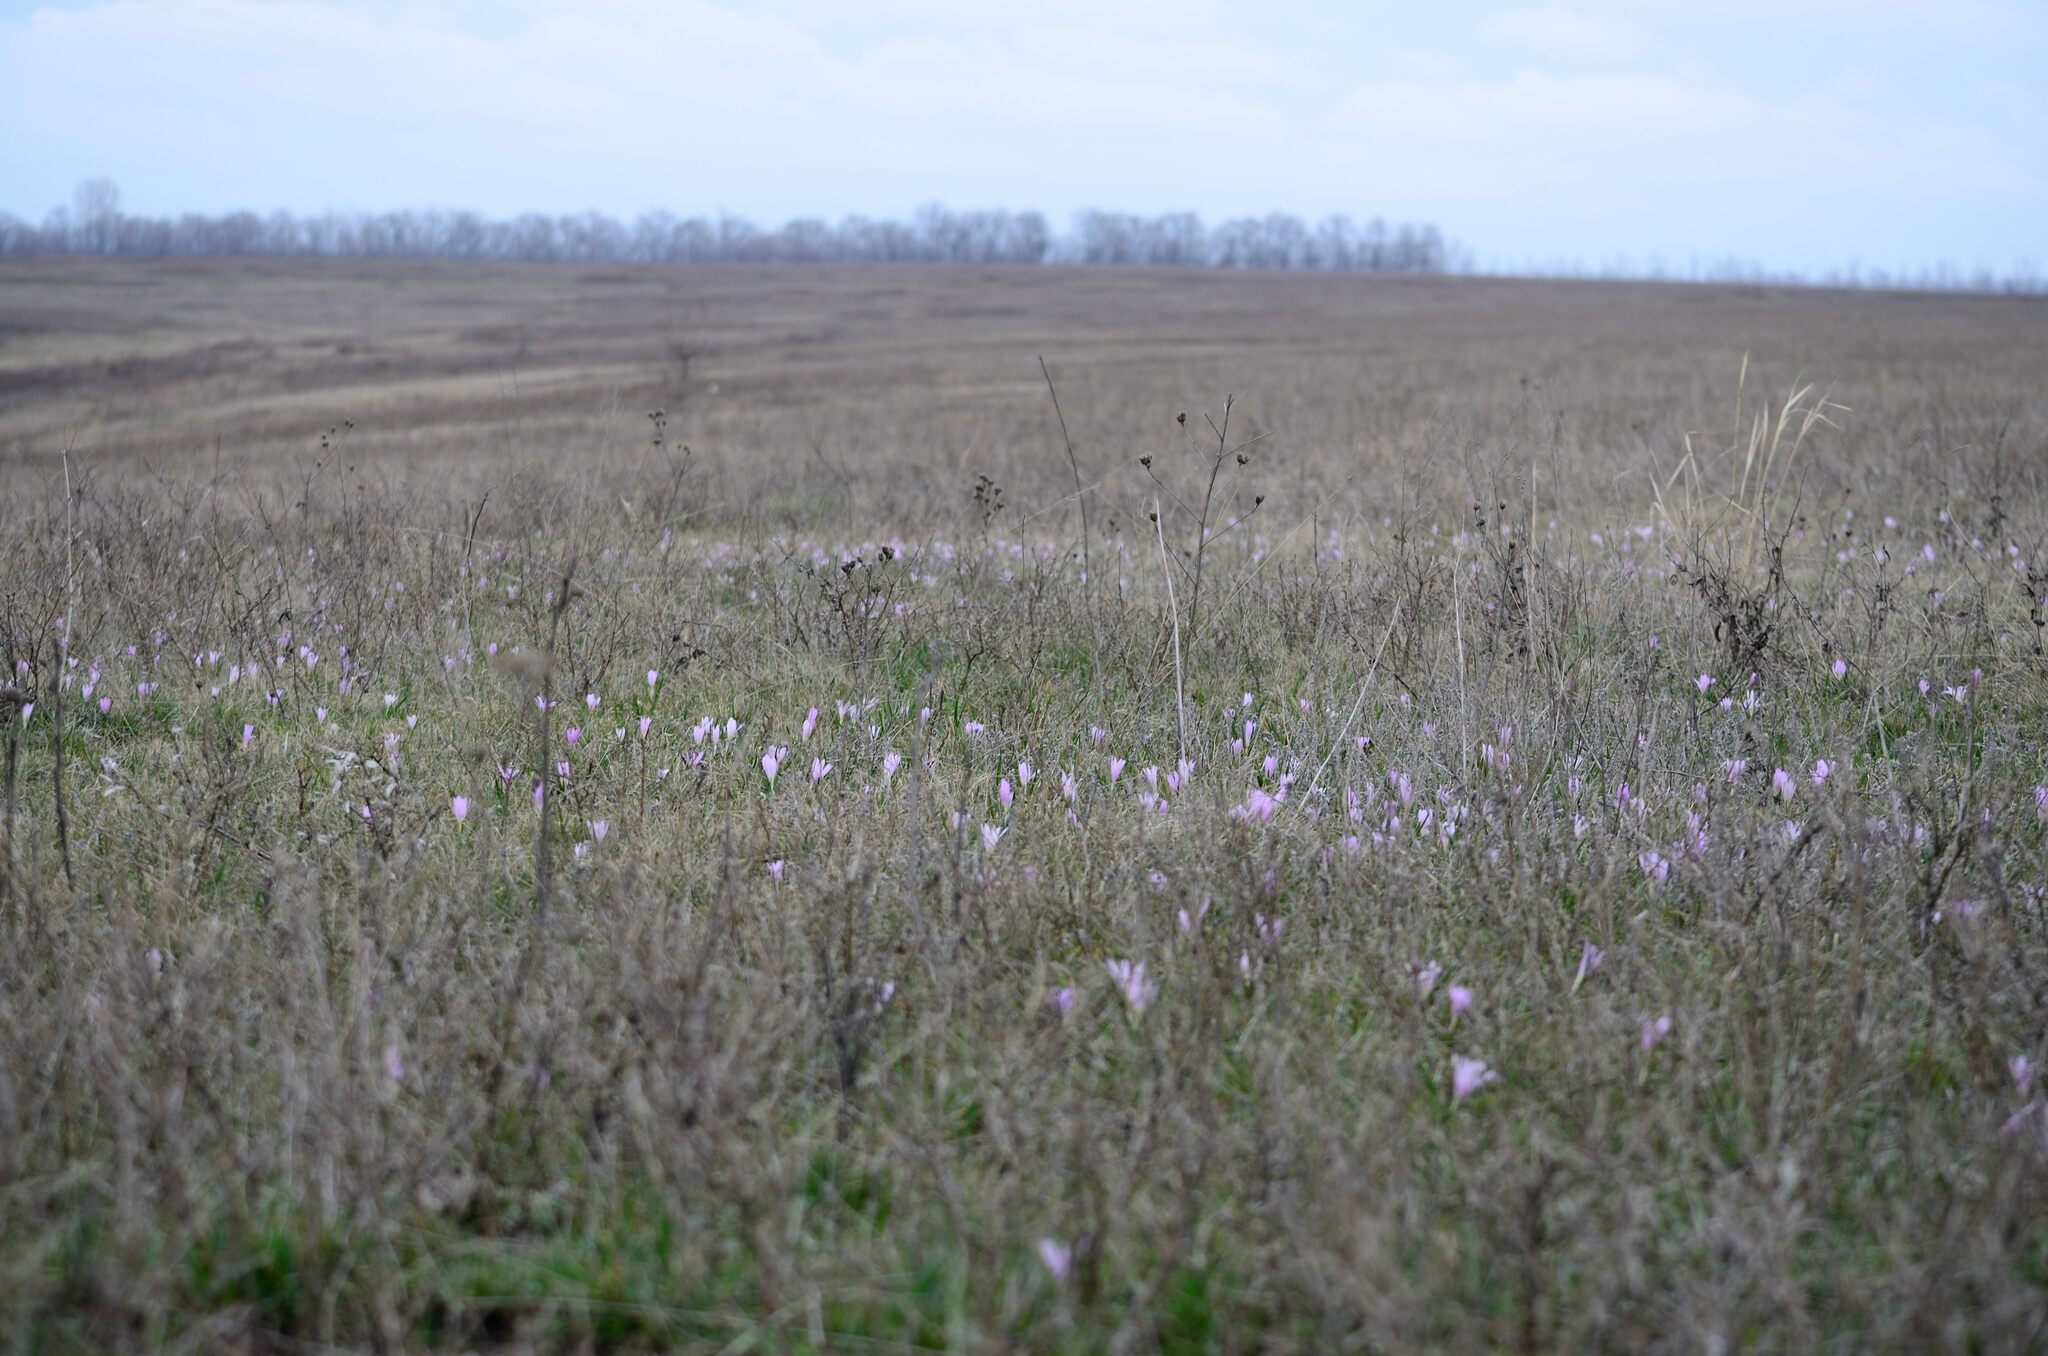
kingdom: Plantae
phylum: Tracheophyta
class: Liliopsida
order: Liliales
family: Colchicaceae
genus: Colchicum
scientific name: Colchicum bulbocodium
